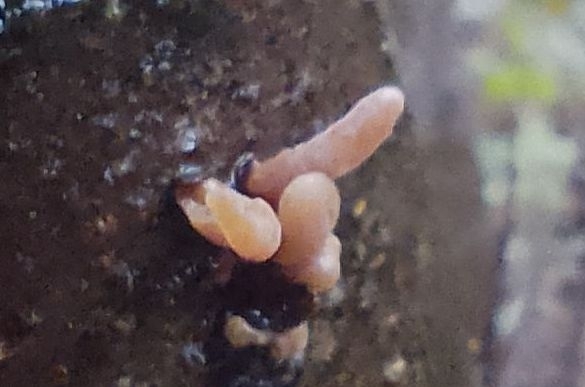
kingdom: Fungi
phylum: Basidiomycota
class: Agaricomycetes
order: Agaricales
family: Typhulaceae
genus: Typhula
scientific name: Typhula contorta
